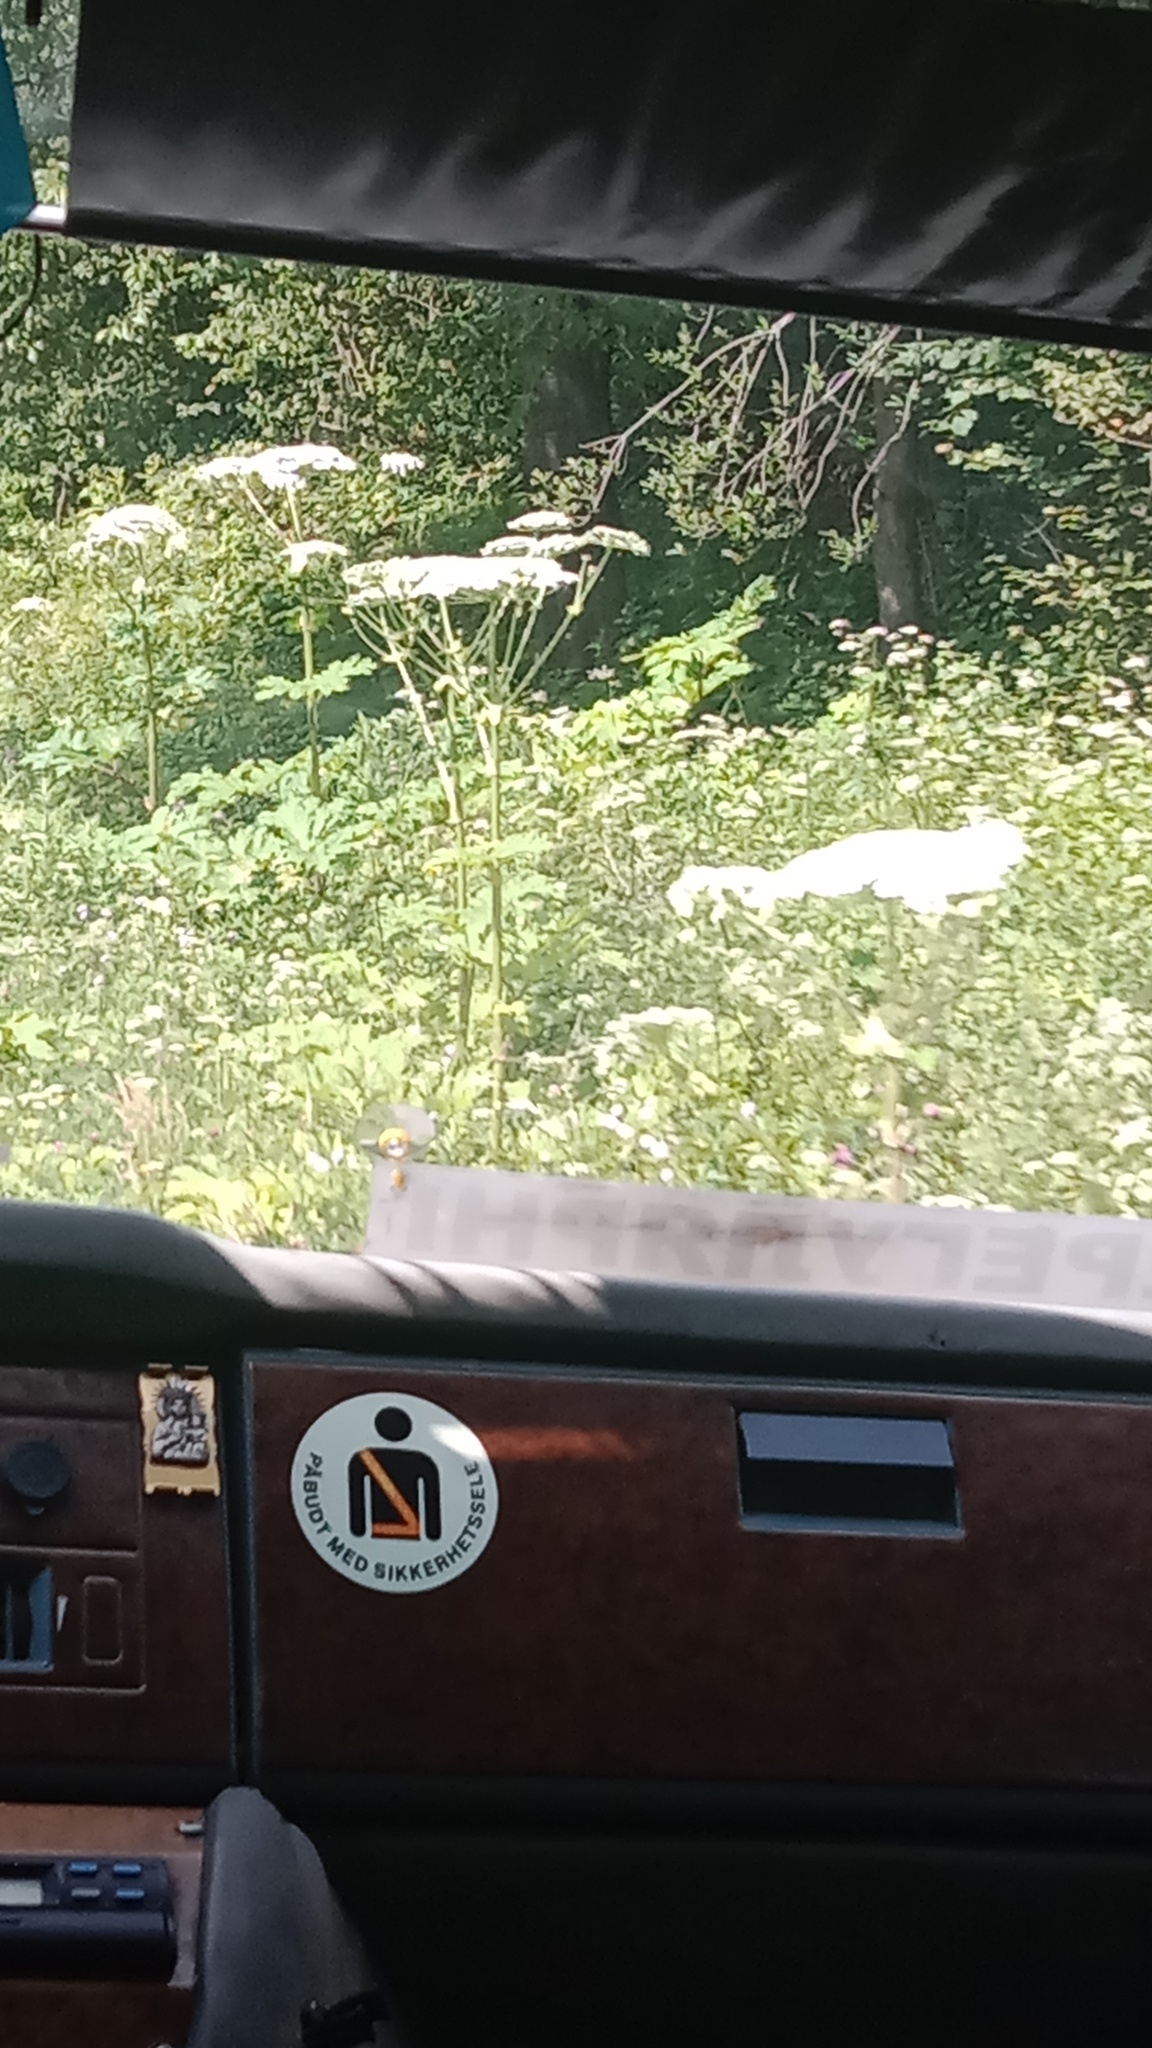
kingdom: Plantae
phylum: Tracheophyta
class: Magnoliopsida
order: Apiales
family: Apiaceae
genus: Heracleum
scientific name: Heracleum sosnowskyi
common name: Sosnowsky's hogweed
